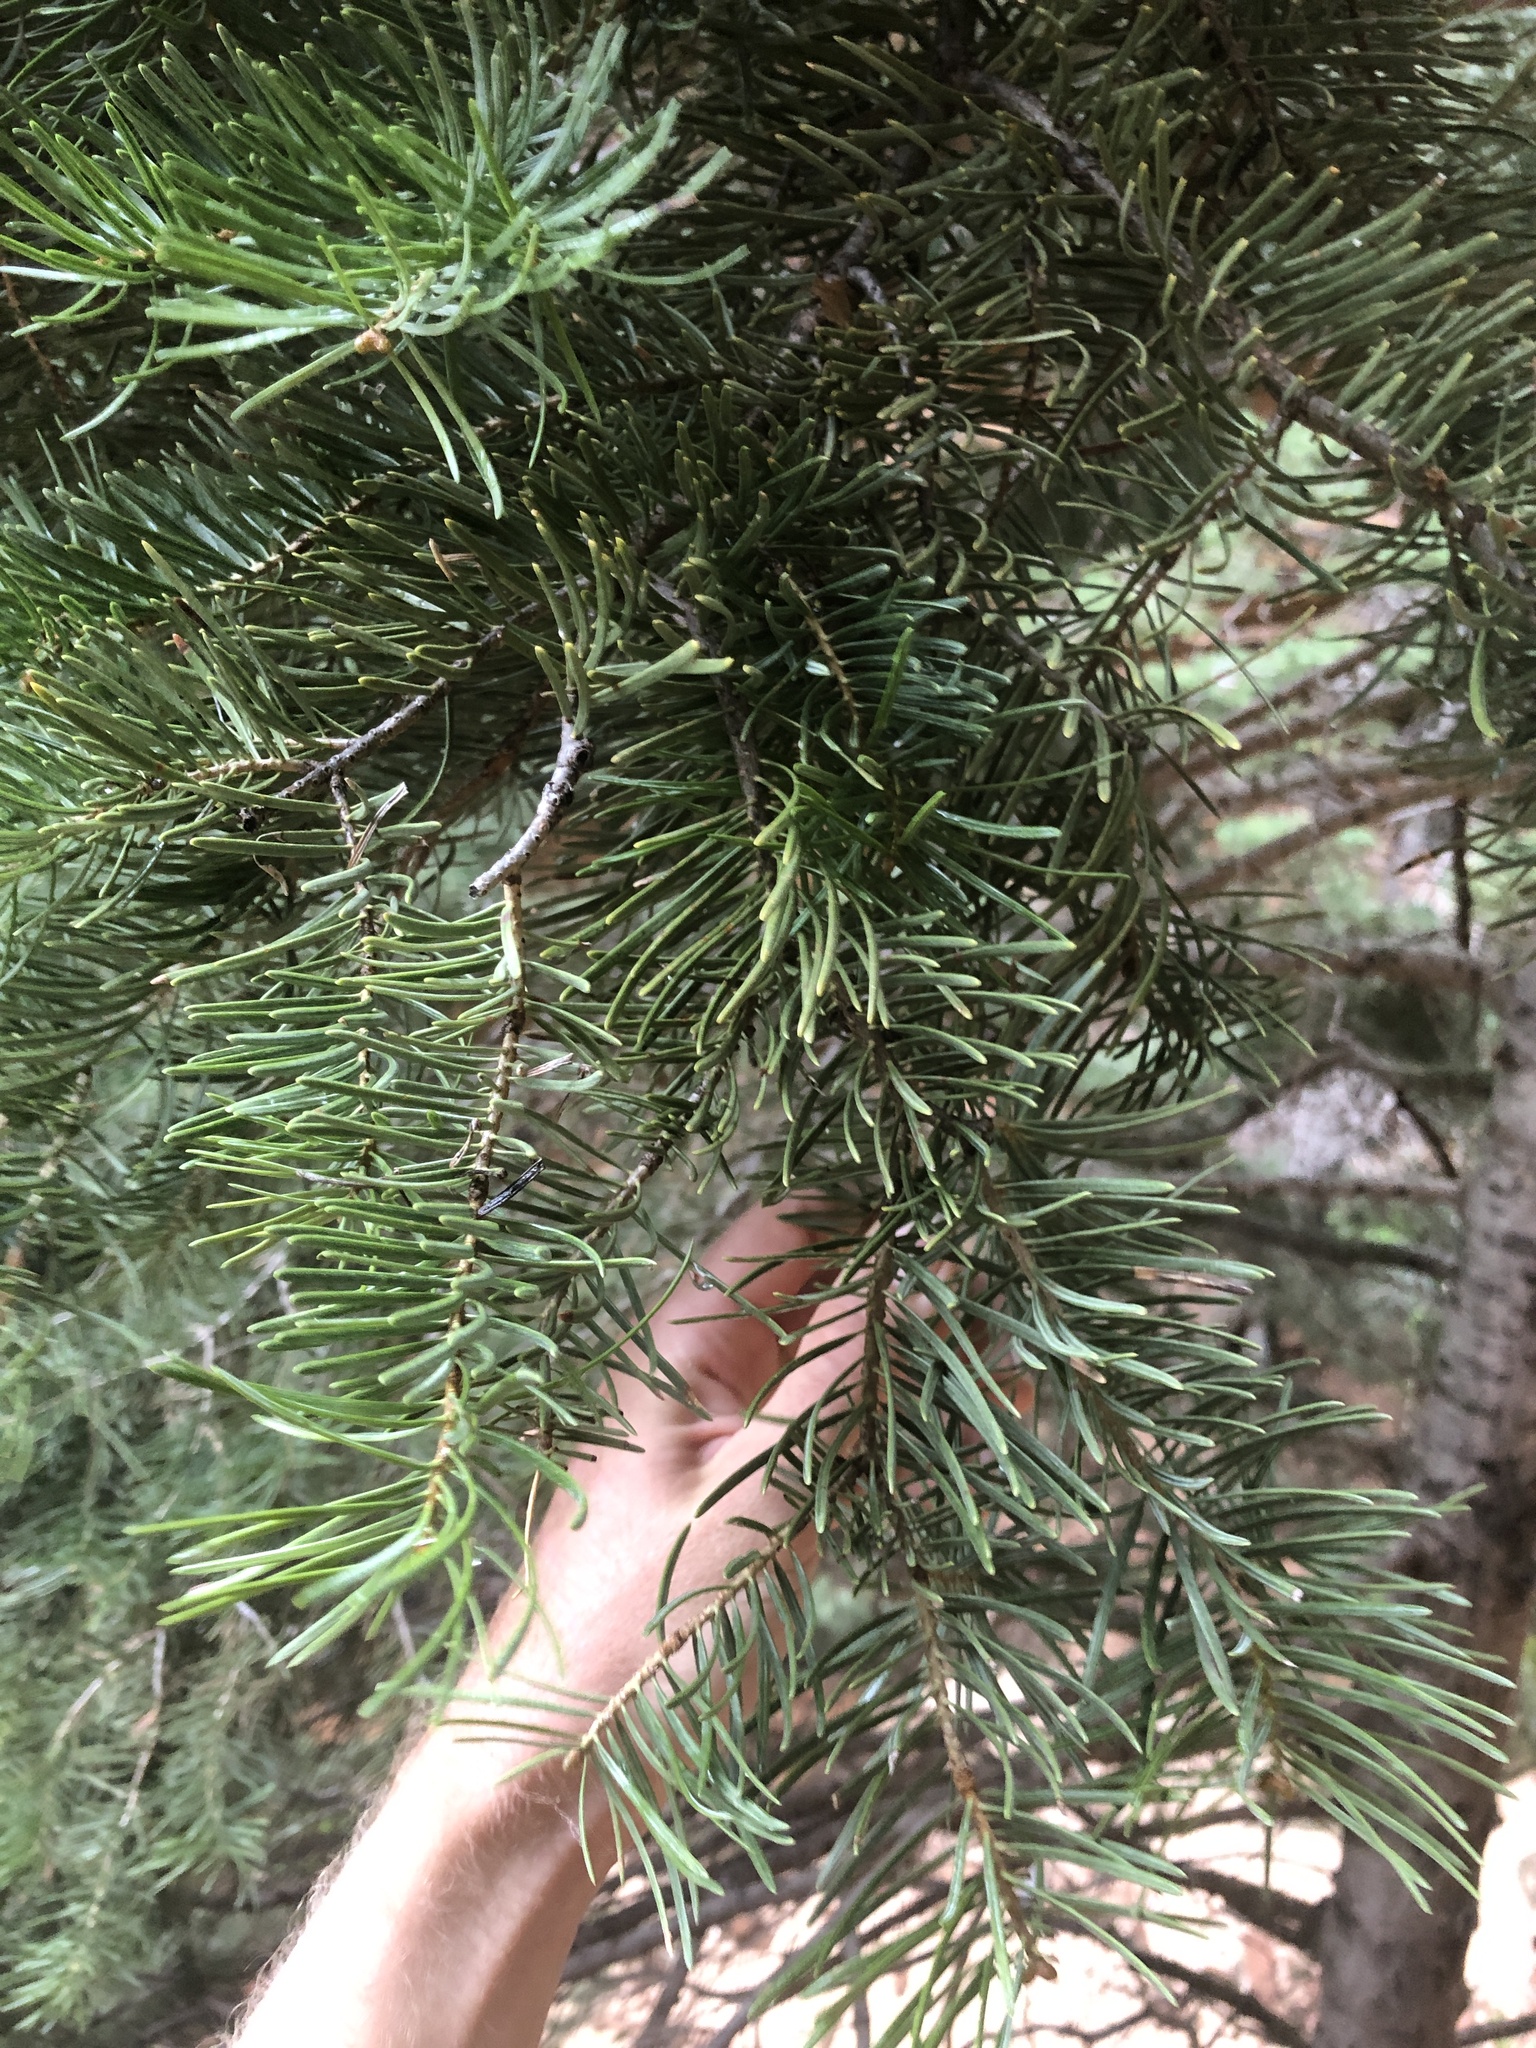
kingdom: Plantae
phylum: Tracheophyta
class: Pinopsida
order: Pinales
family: Pinaceae
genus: Abies
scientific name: Abies concolor
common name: Colorado fir
